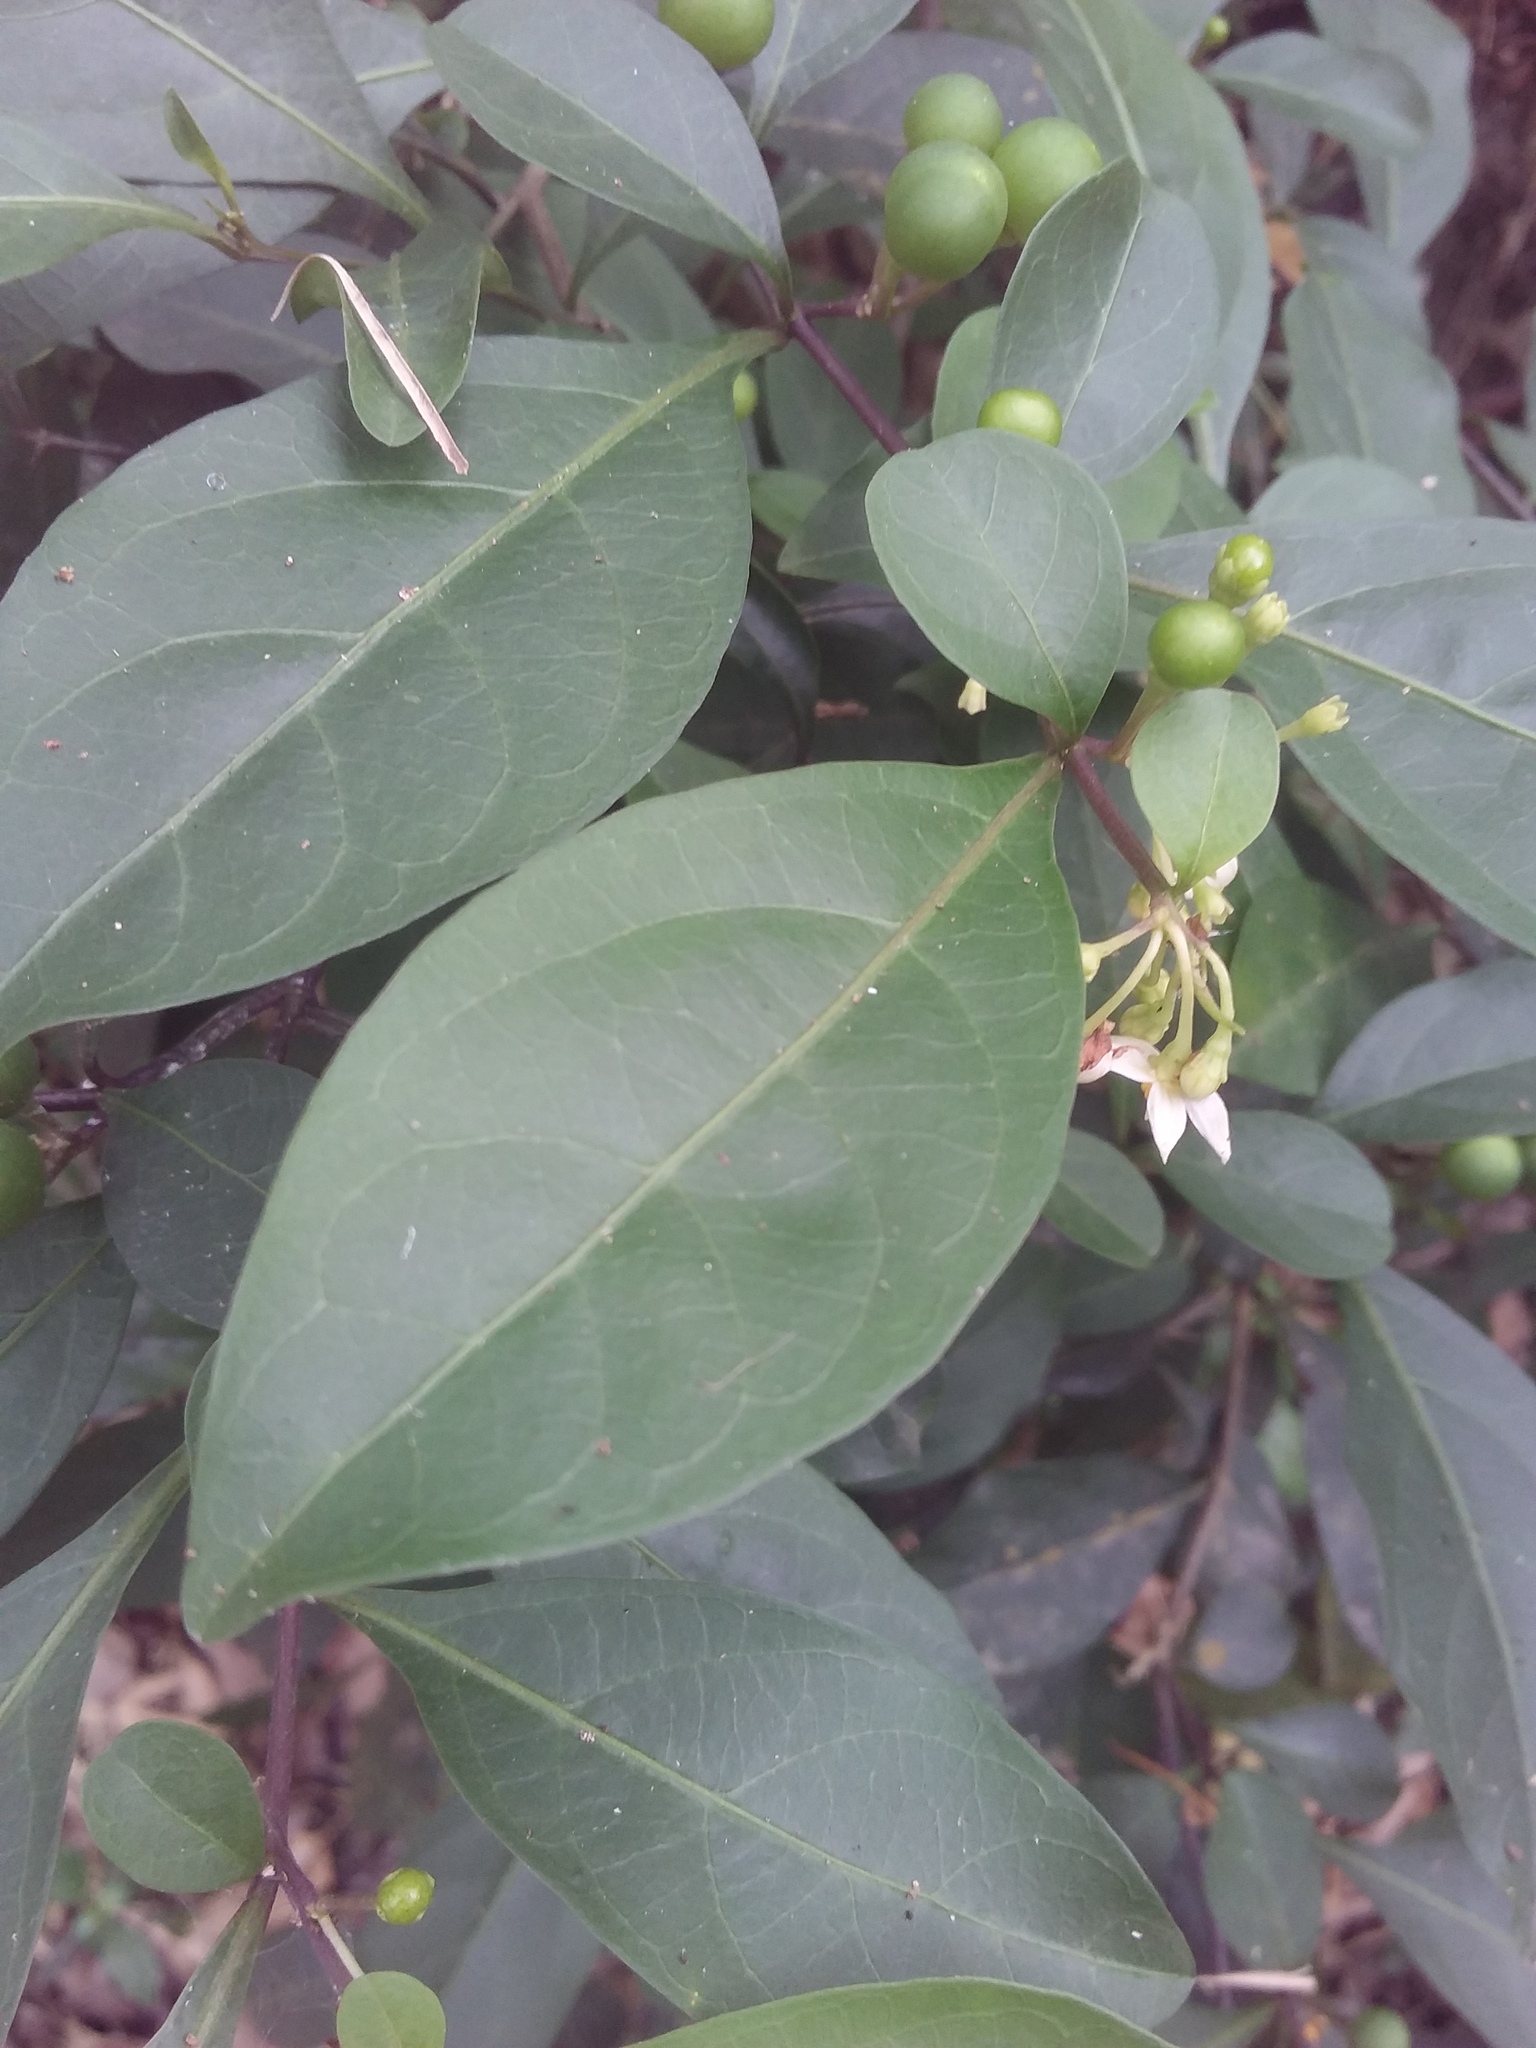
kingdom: Plantae
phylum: Tracheophyta
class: Magnoliopsida
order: Solanales
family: Solanaceae
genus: Solanum
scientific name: Solanum diphyllum
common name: Twoleaf nightshade
